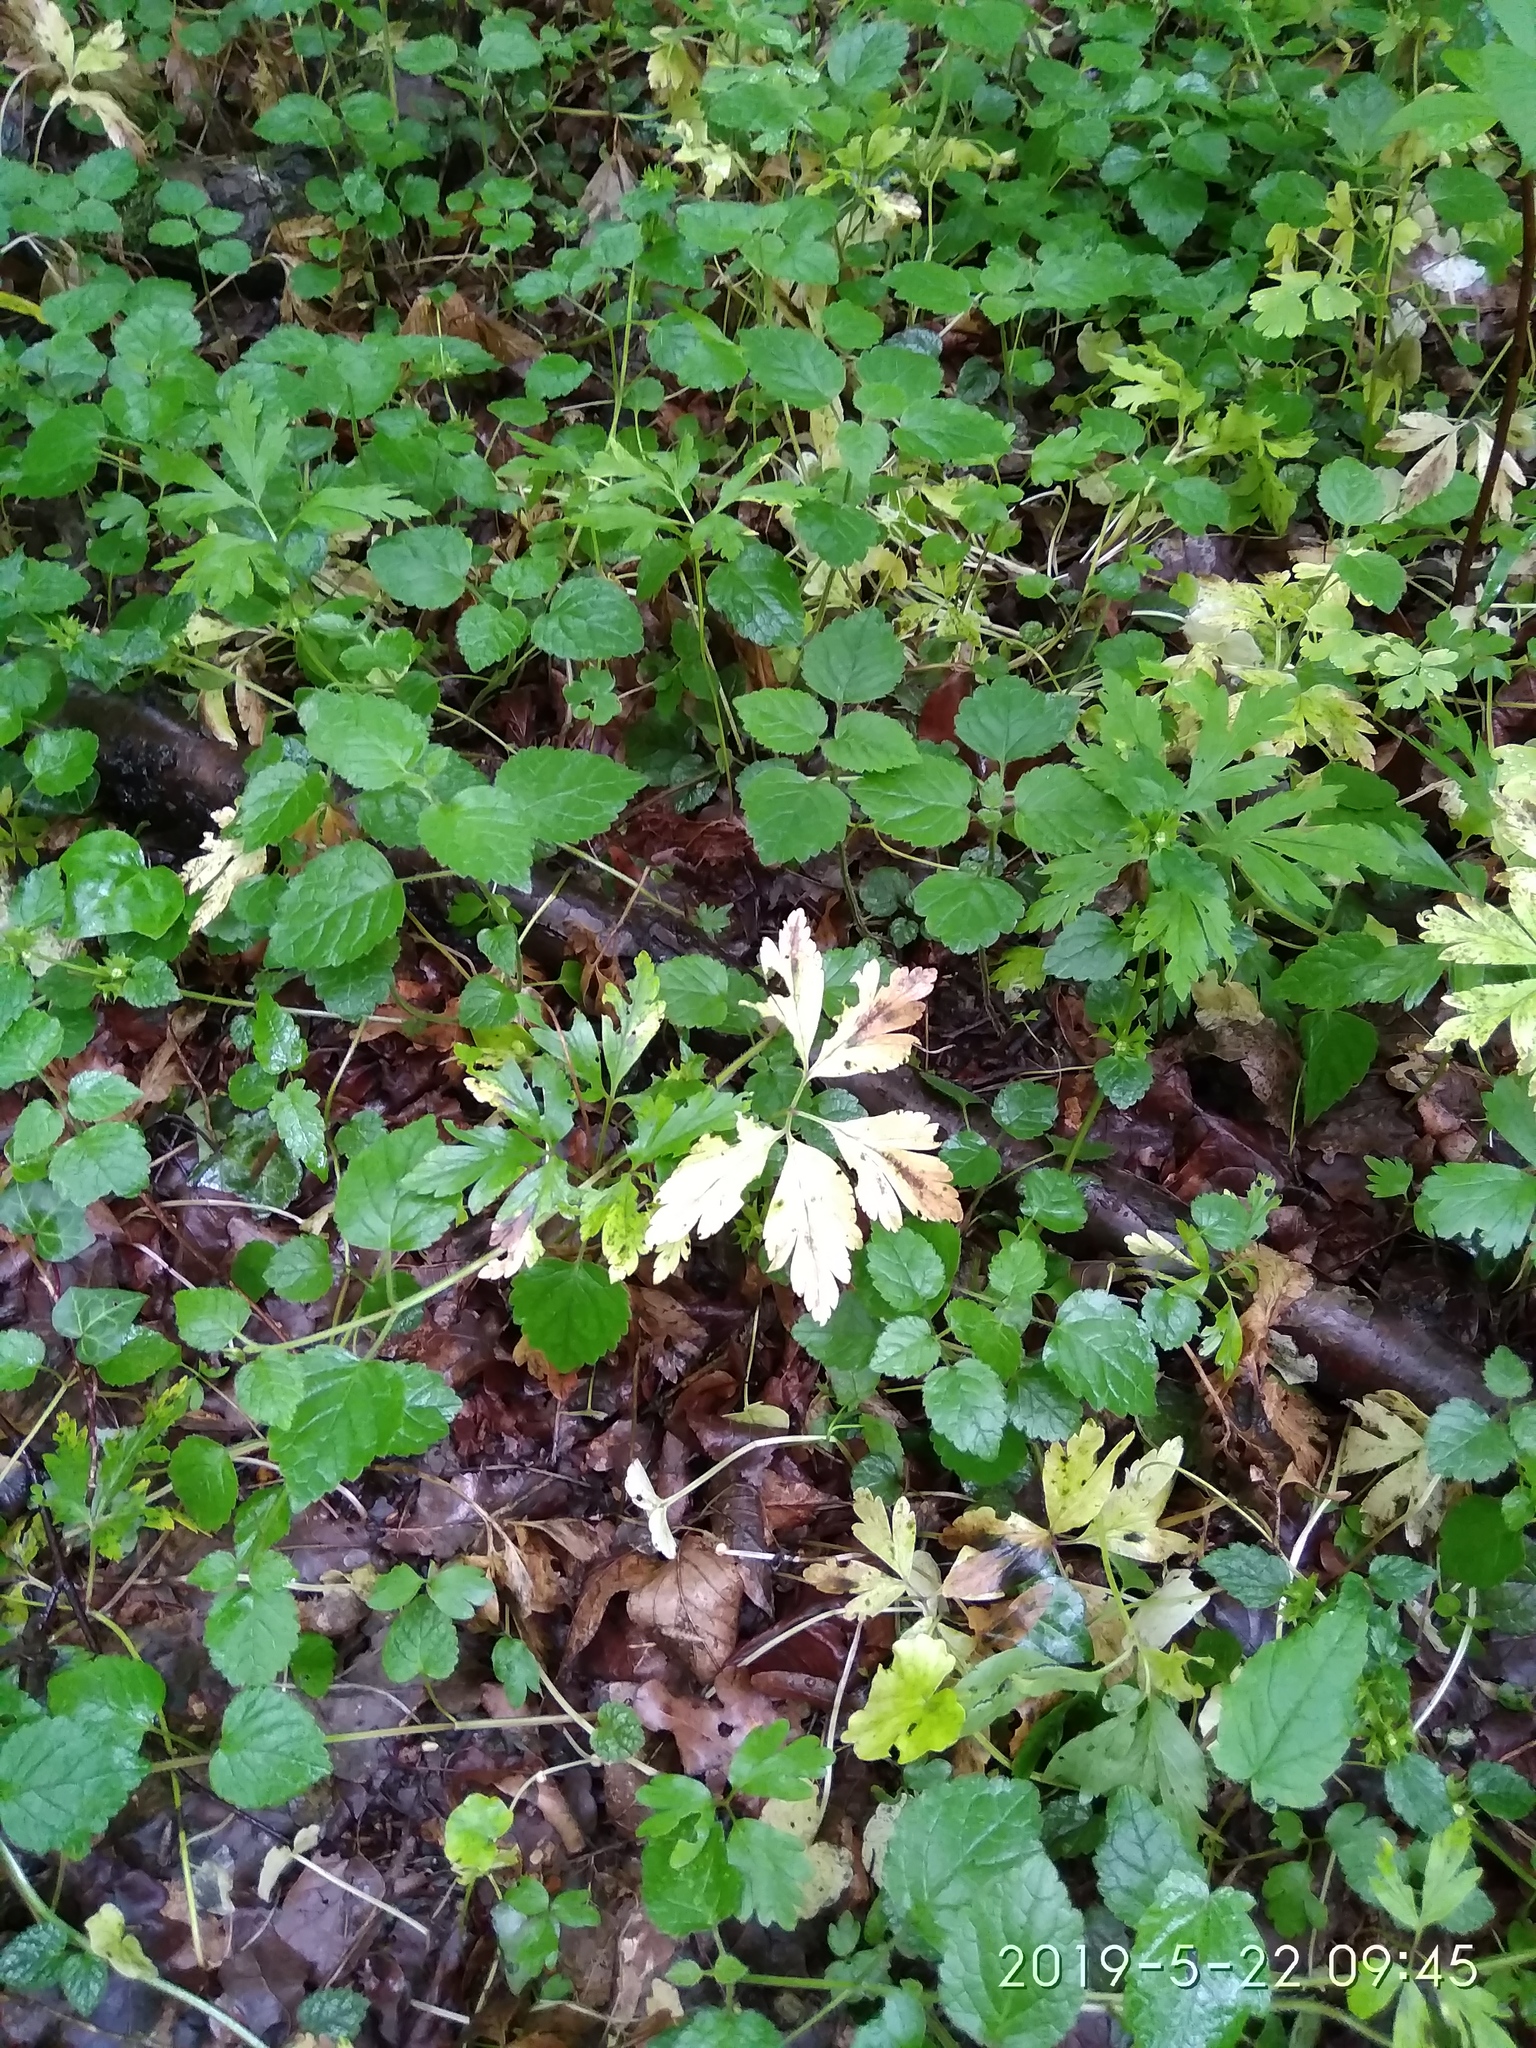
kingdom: Plantae
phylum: Tracheophyta
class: Magnoliopsida
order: Ranunculales
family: Ranunculaceae
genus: Anemone
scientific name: Anemone nemorosa
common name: Wood anemone
